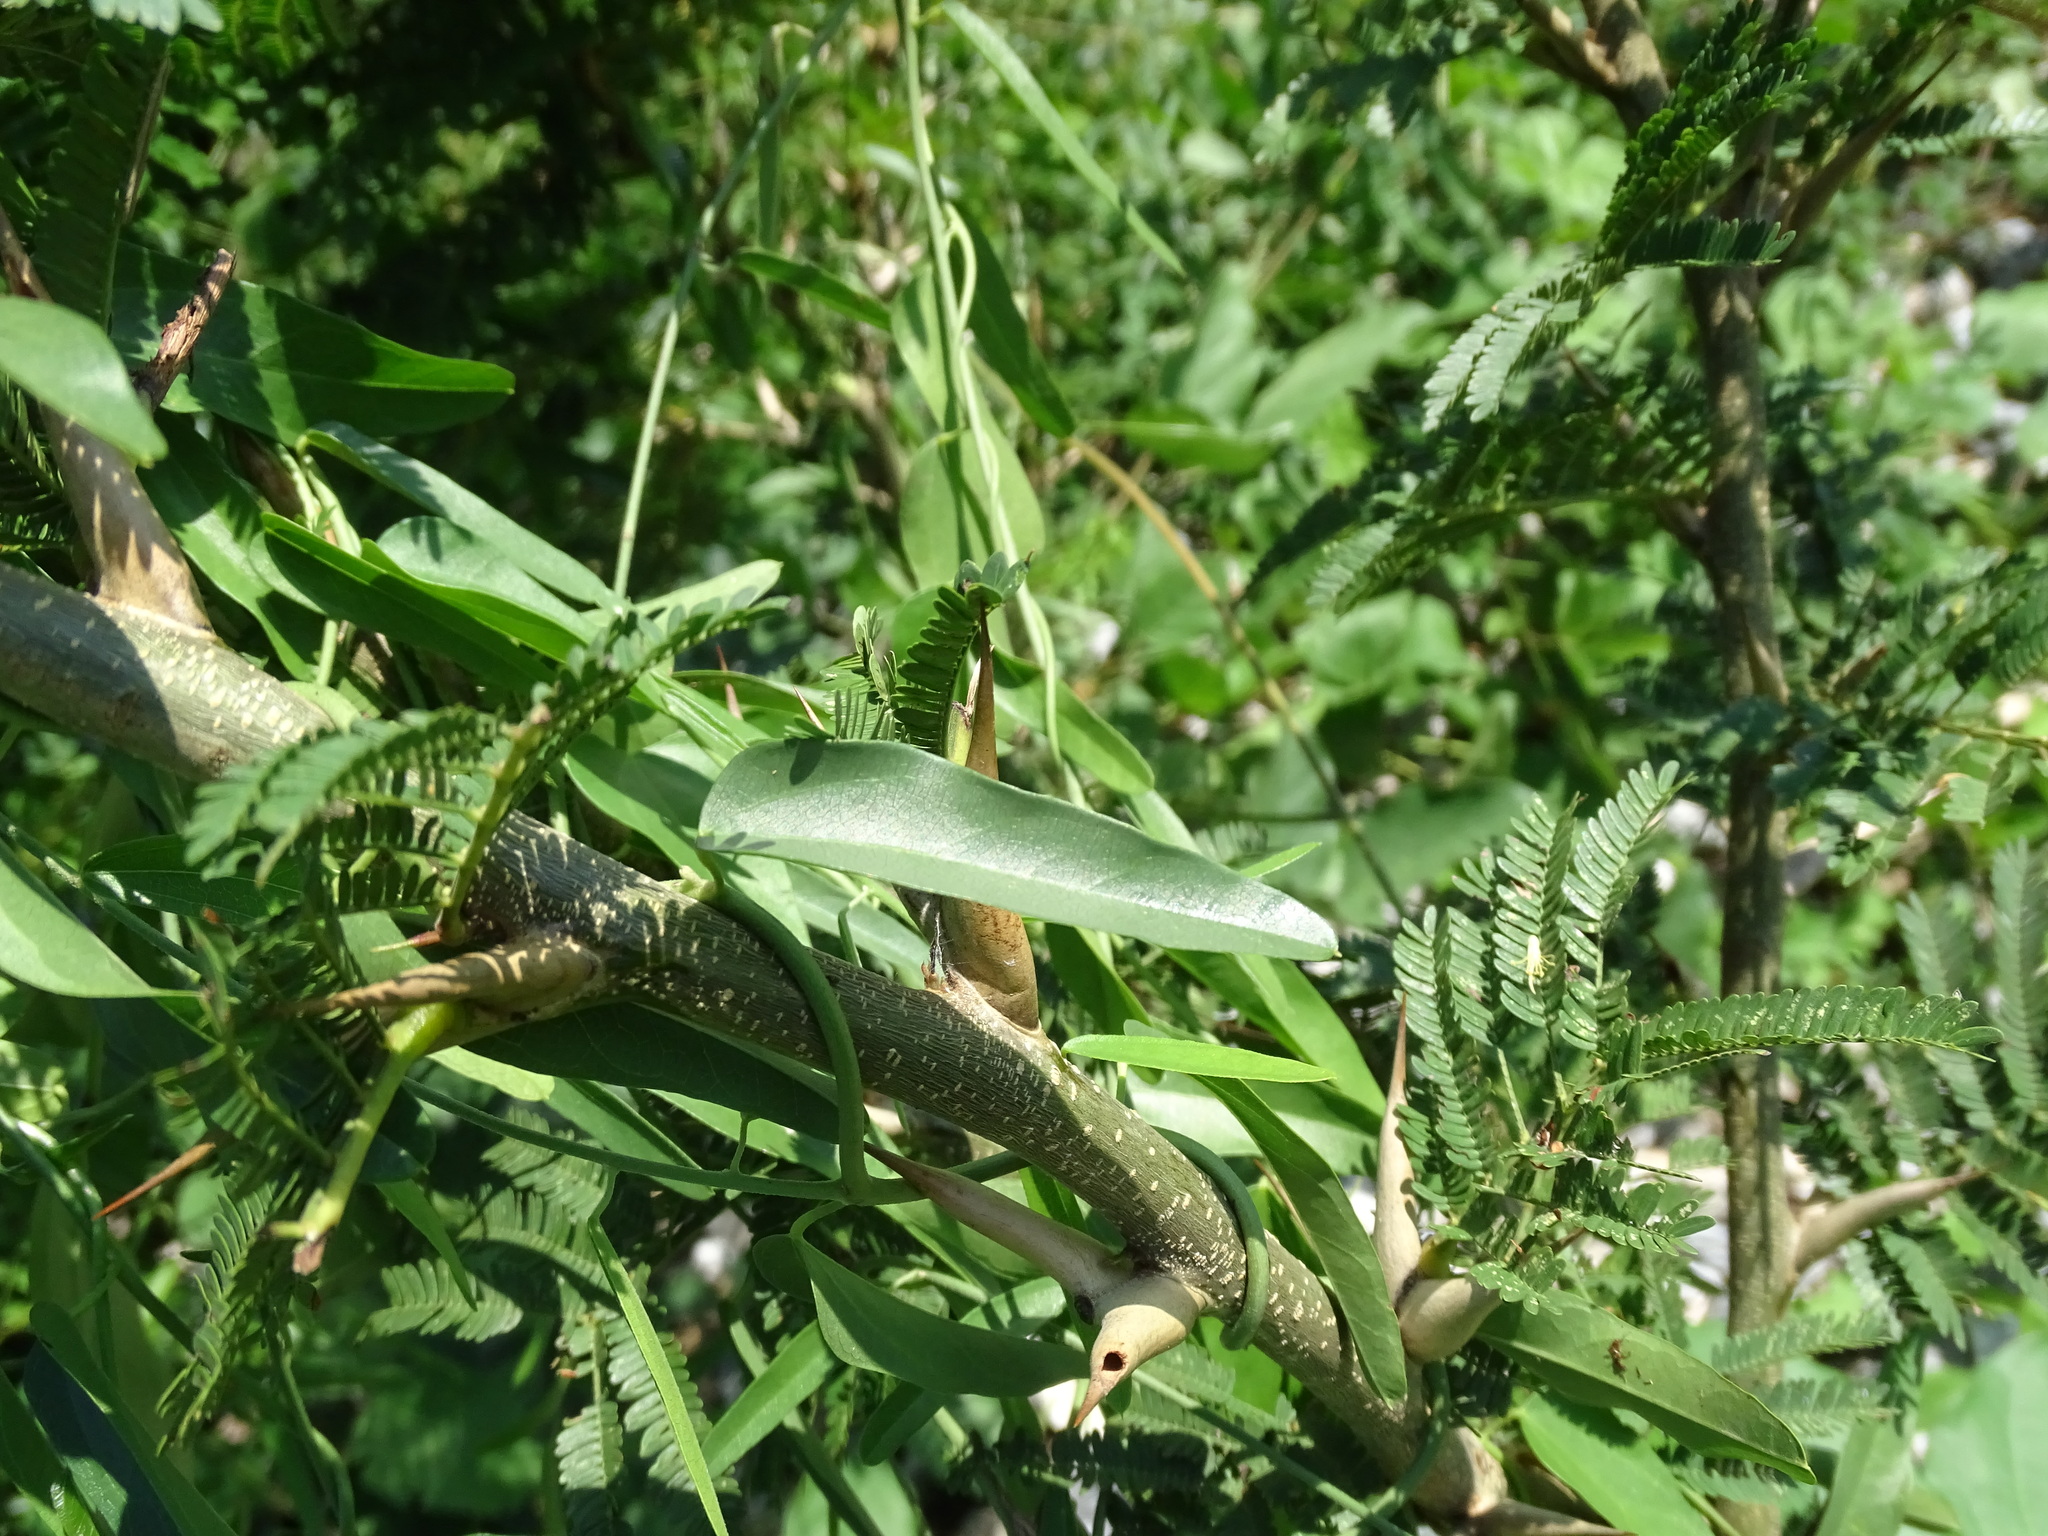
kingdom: Plantae
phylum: Tracheophyta
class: Magnoliopsida
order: Gentianales
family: Apocynaceae
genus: Funastrum
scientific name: Funastrum clausum
